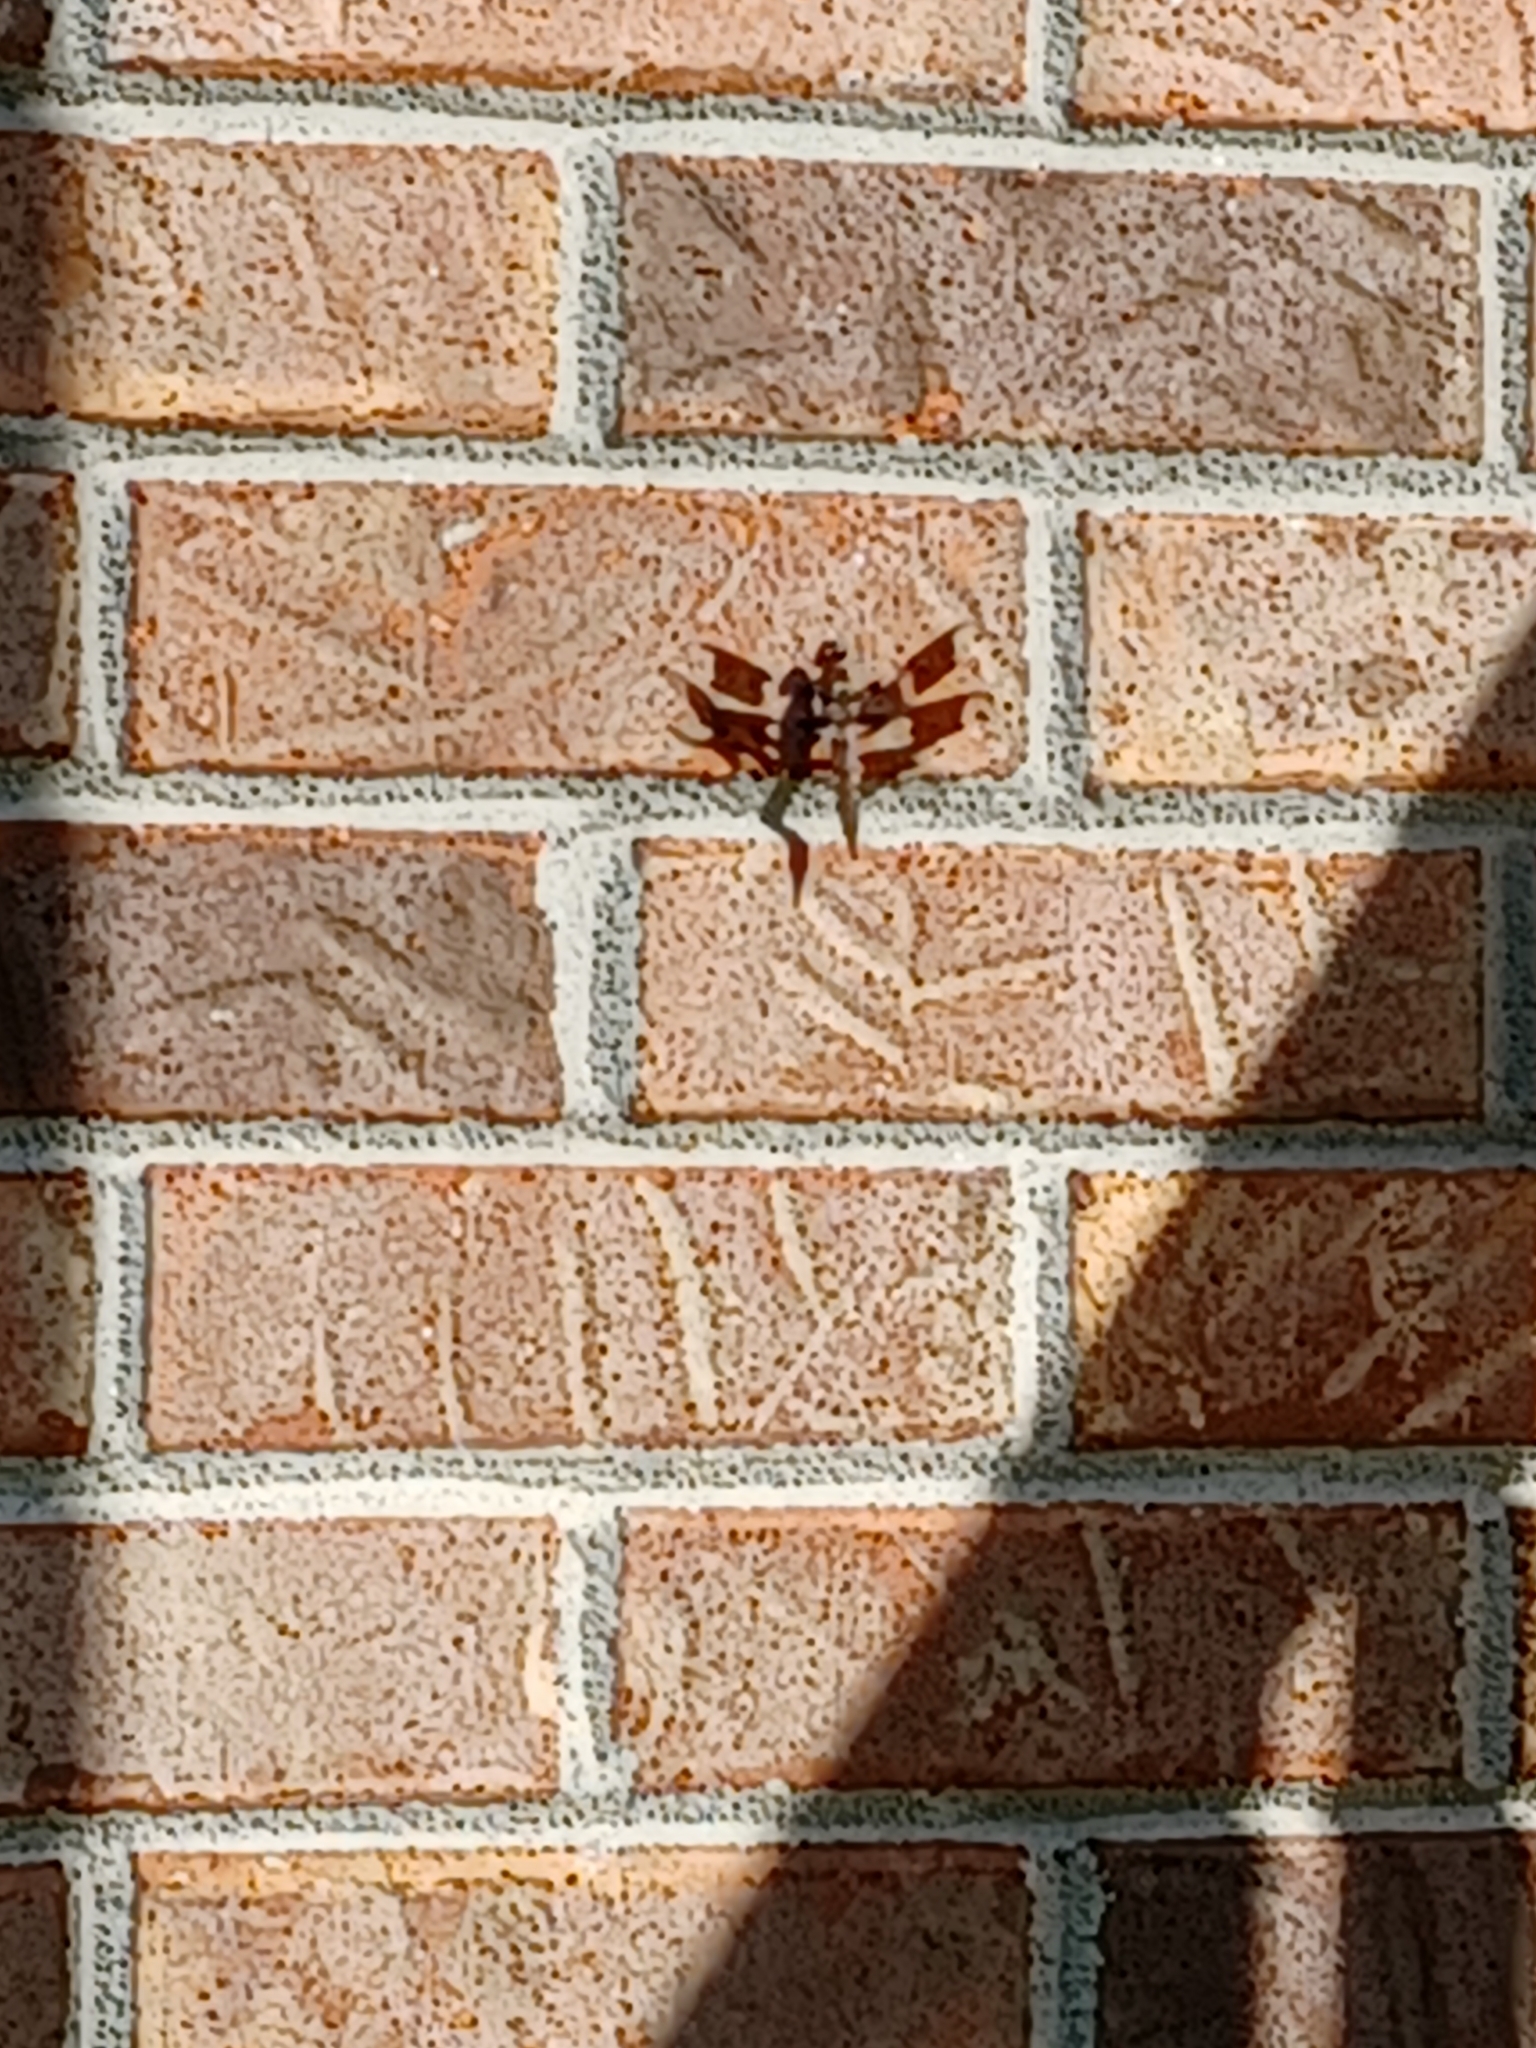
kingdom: Animalia
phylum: Arthropoda
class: Insecta
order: Odonata
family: Libellulidae
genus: Plathemis
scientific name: Plathemis lydia
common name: Common whitetail
